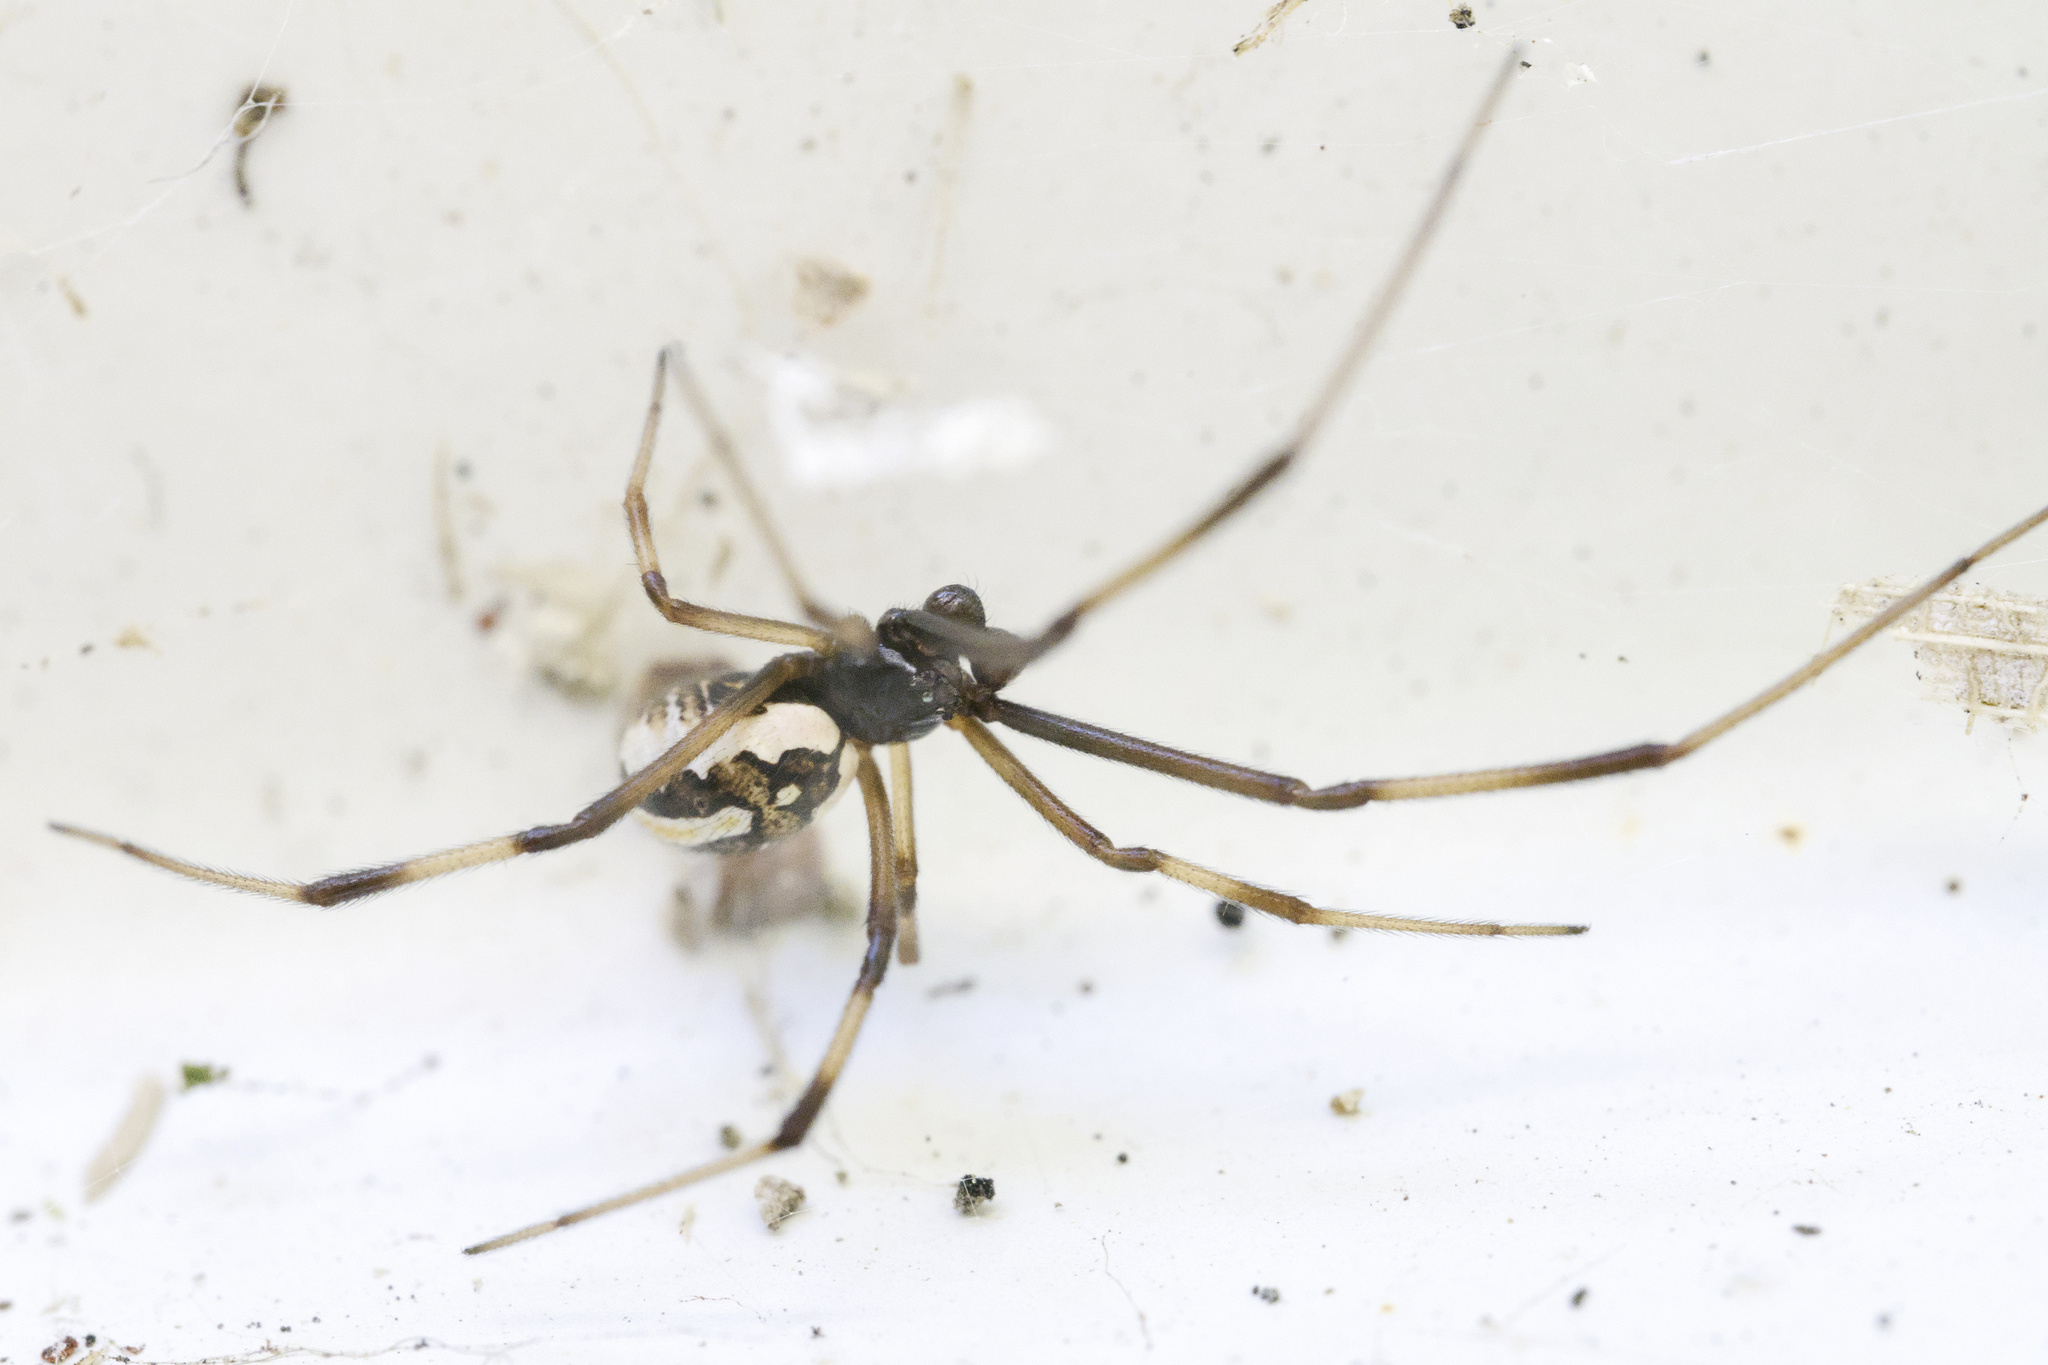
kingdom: Animalia
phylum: Arthropoda
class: Arachnida
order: Araneae
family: Theridiidae
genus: Latrodectus
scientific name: Latrodectus hasselti
